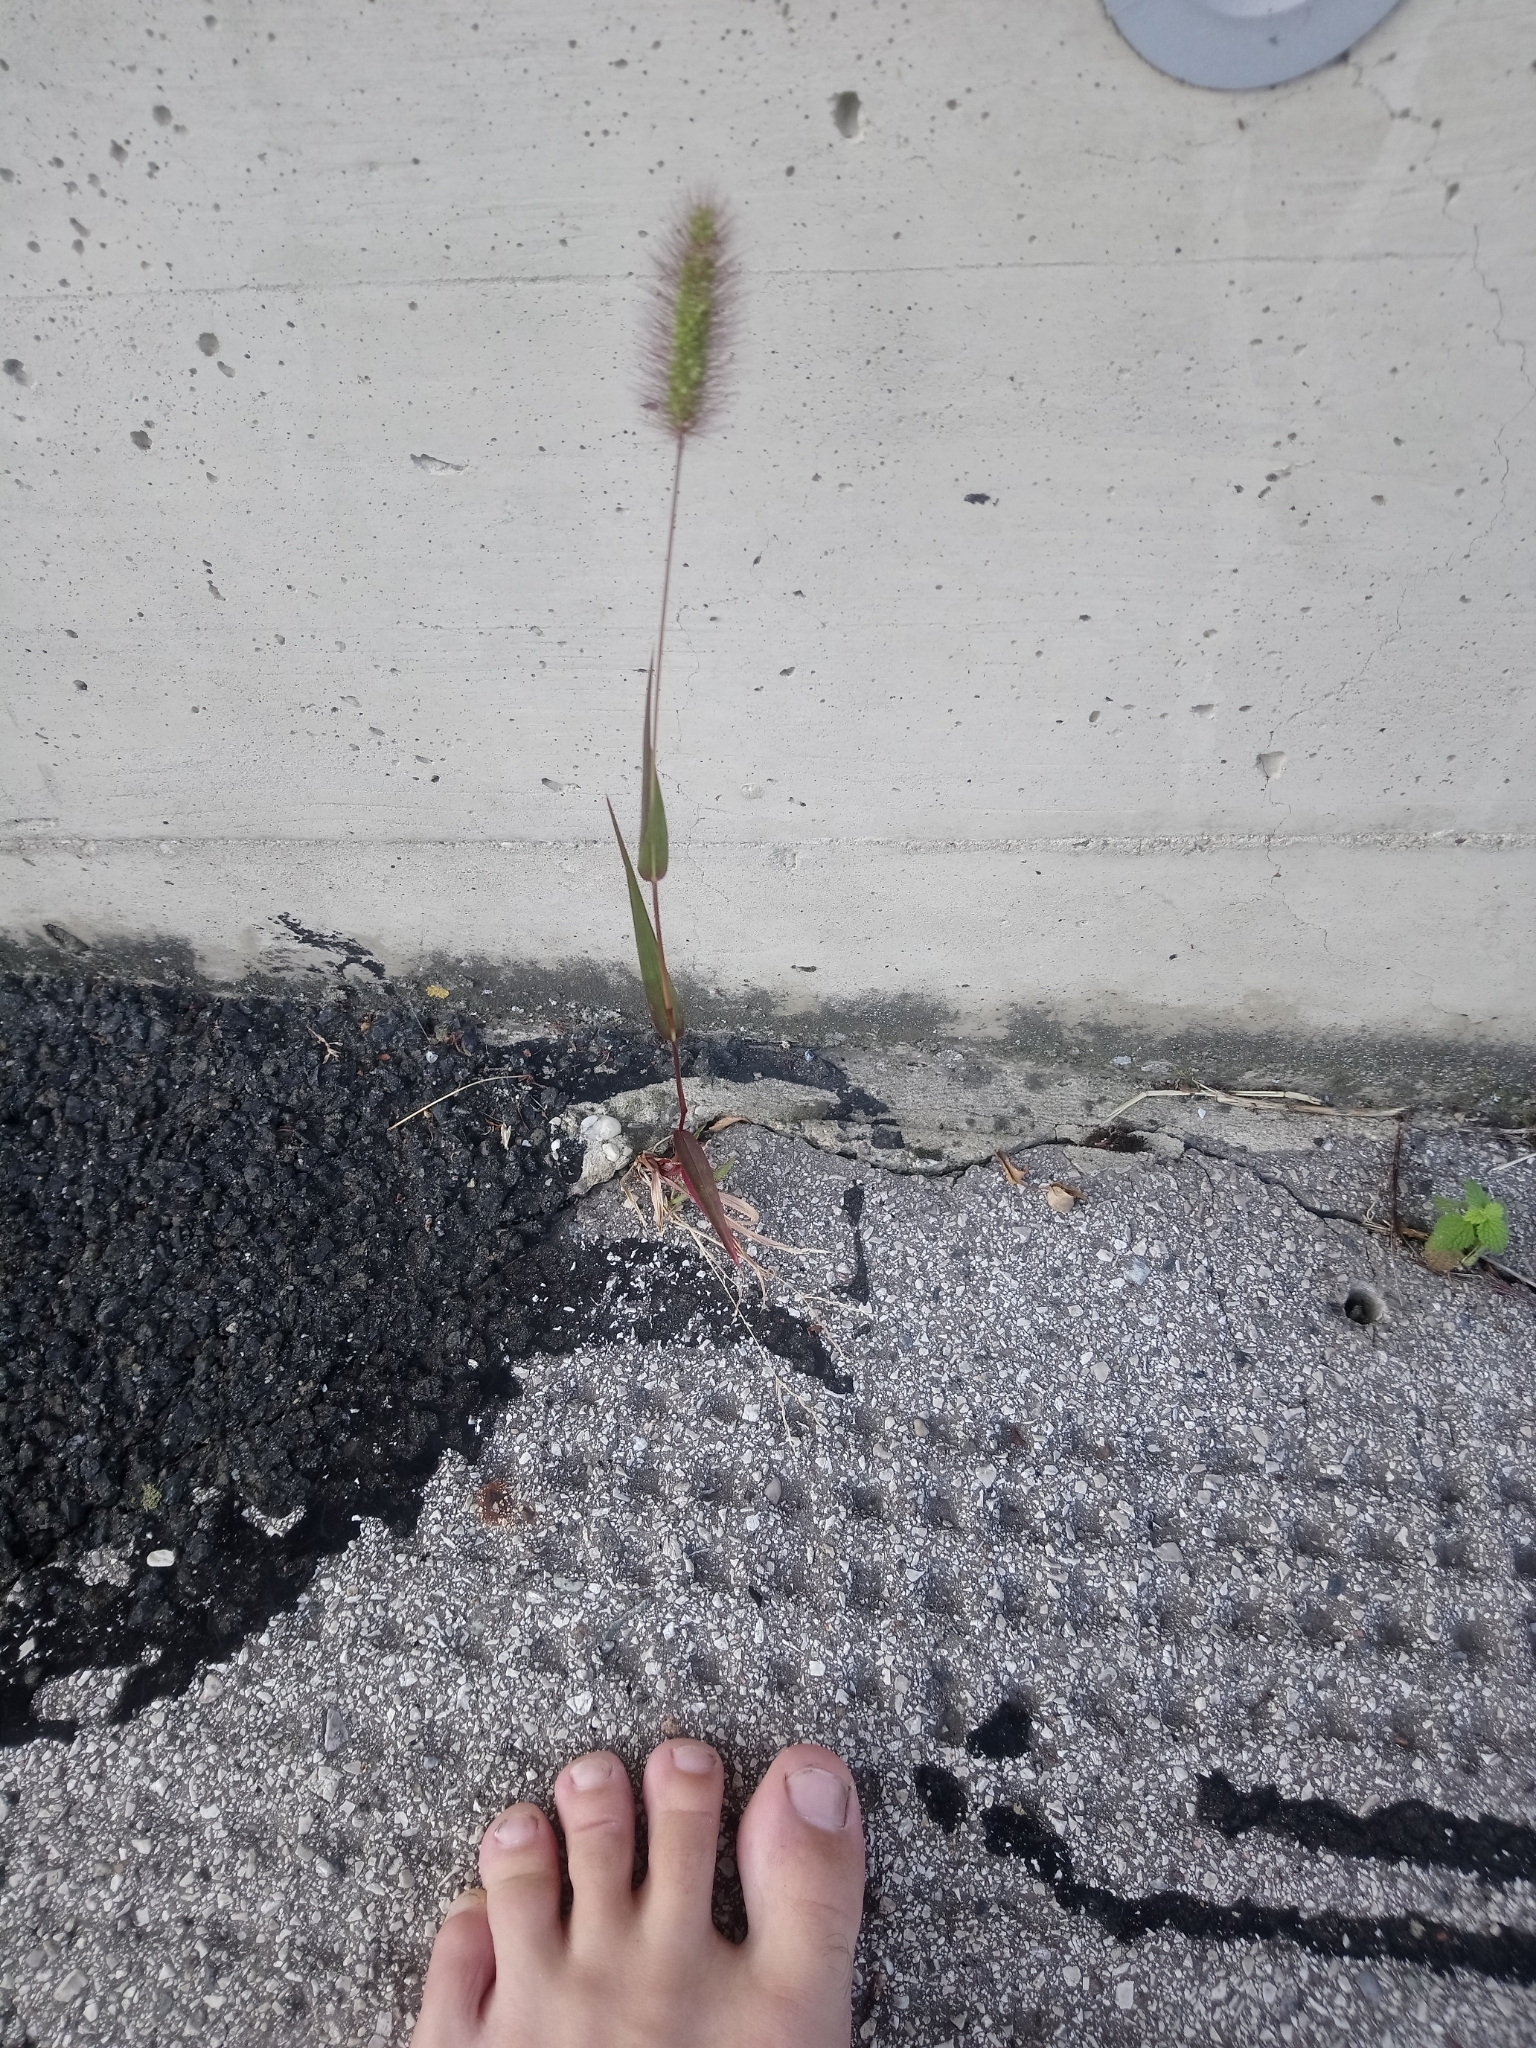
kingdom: Plantae
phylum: Tracheophyta
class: Liliopsida
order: Poales
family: Poaceae
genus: Setaria
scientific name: Setaria viridis
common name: Green bristlegrass
